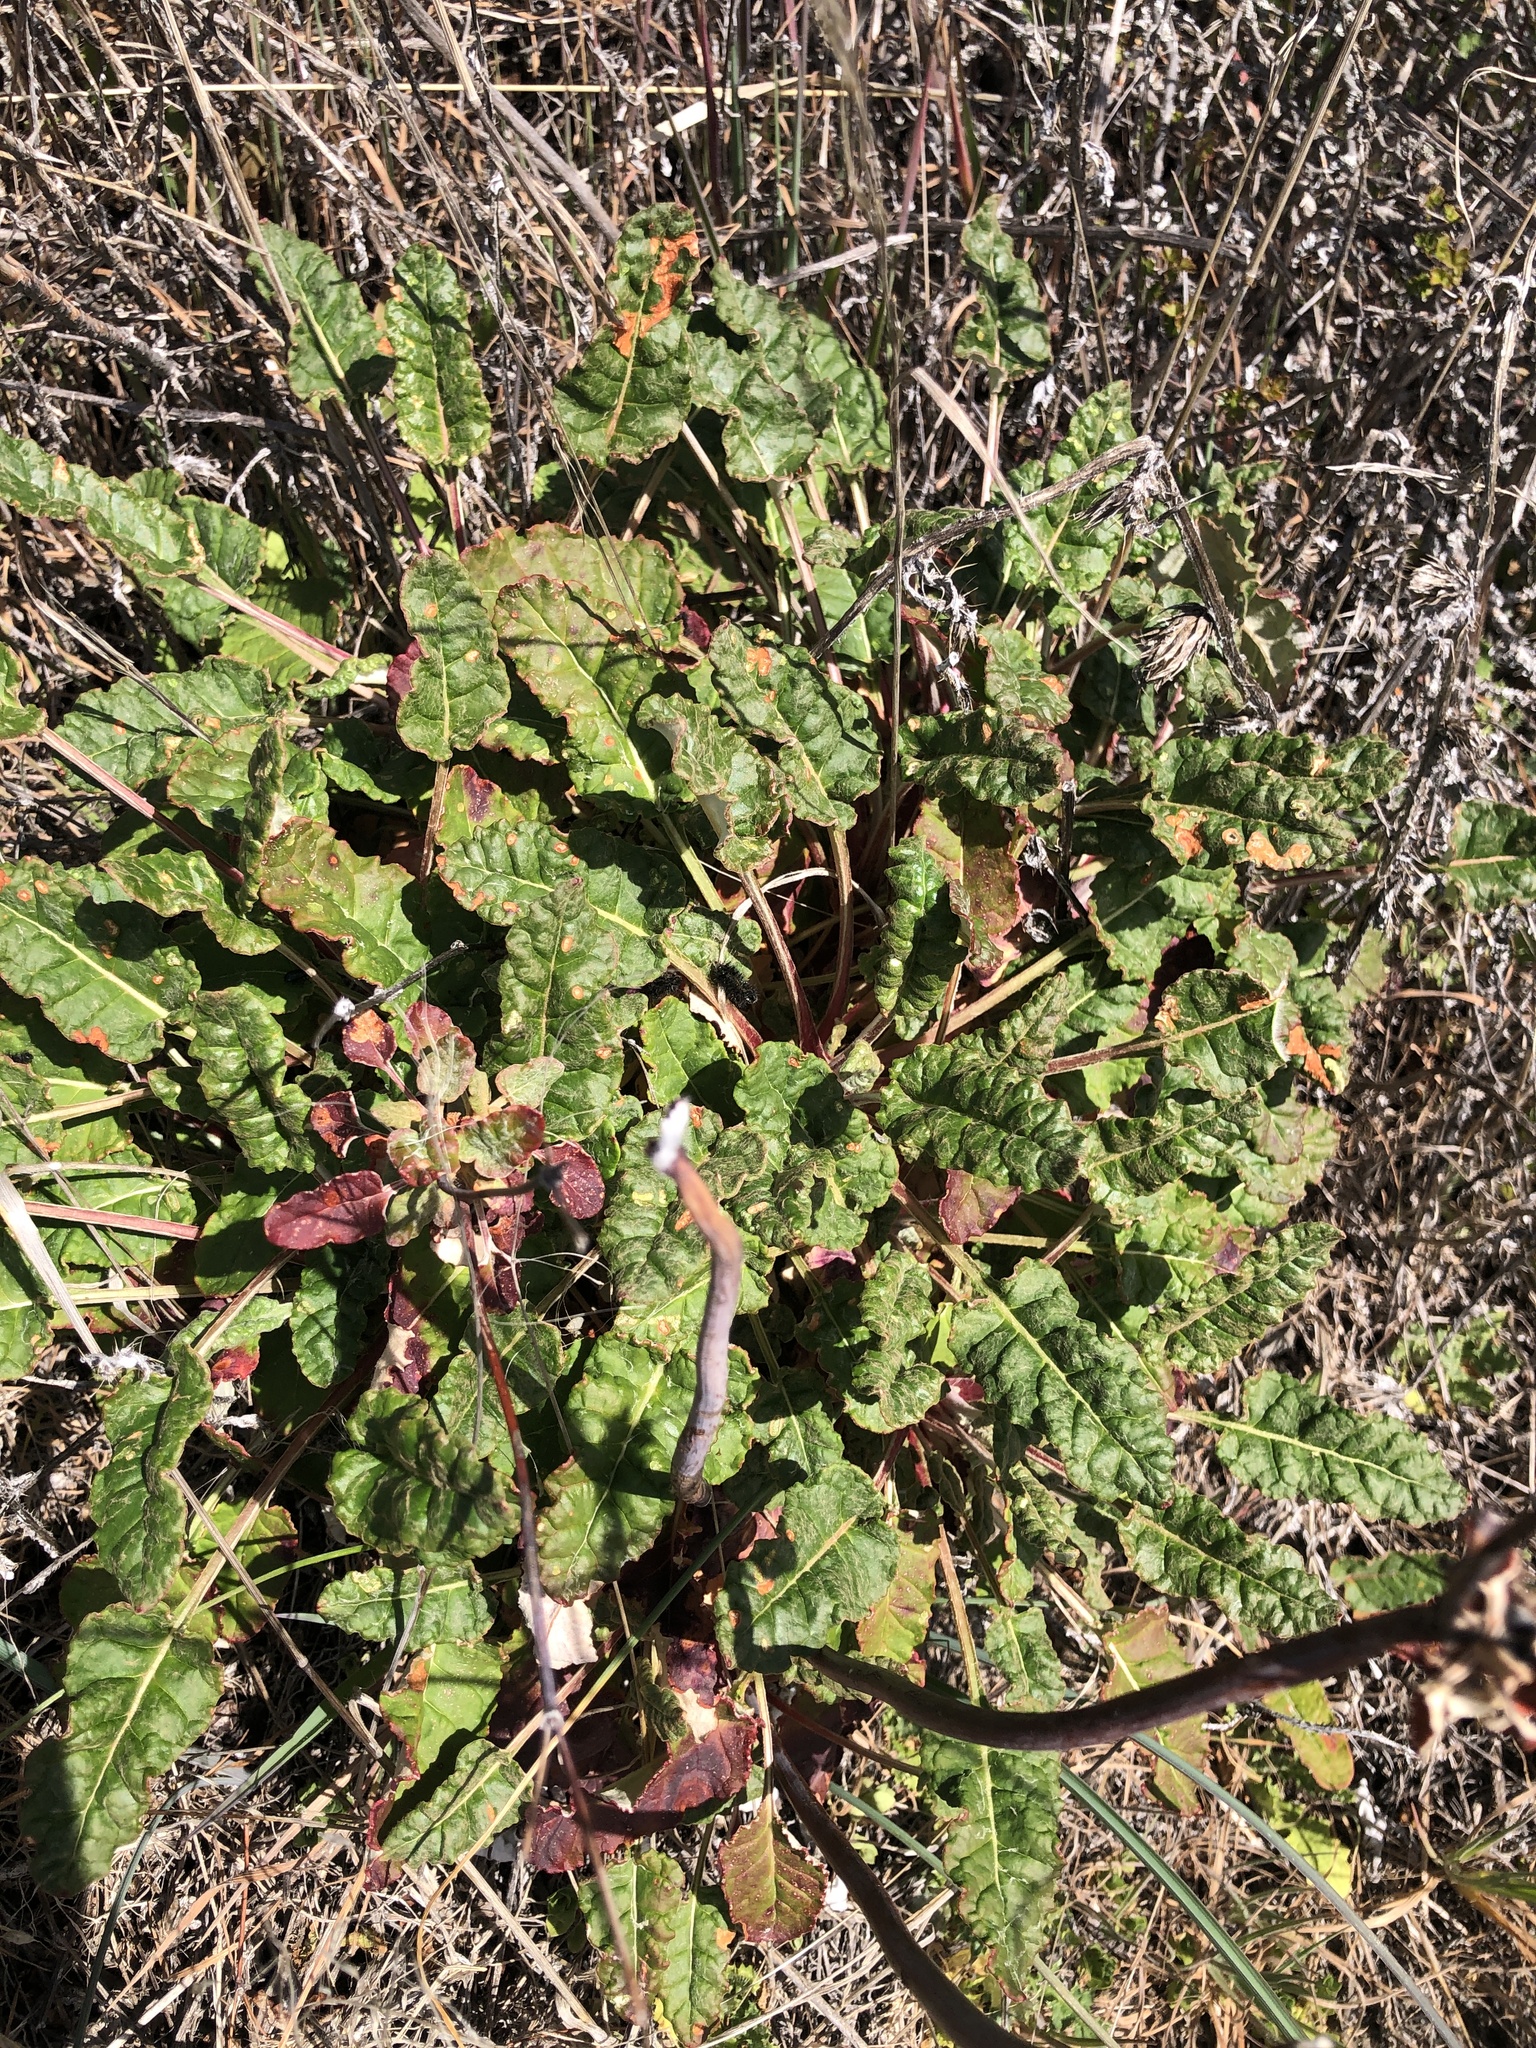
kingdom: Plantae
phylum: Tracheophyta
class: Magnoliopsida
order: Caryophyllales
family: Polygonaceae
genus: Eriogonum
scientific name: Eriogonum nudum
